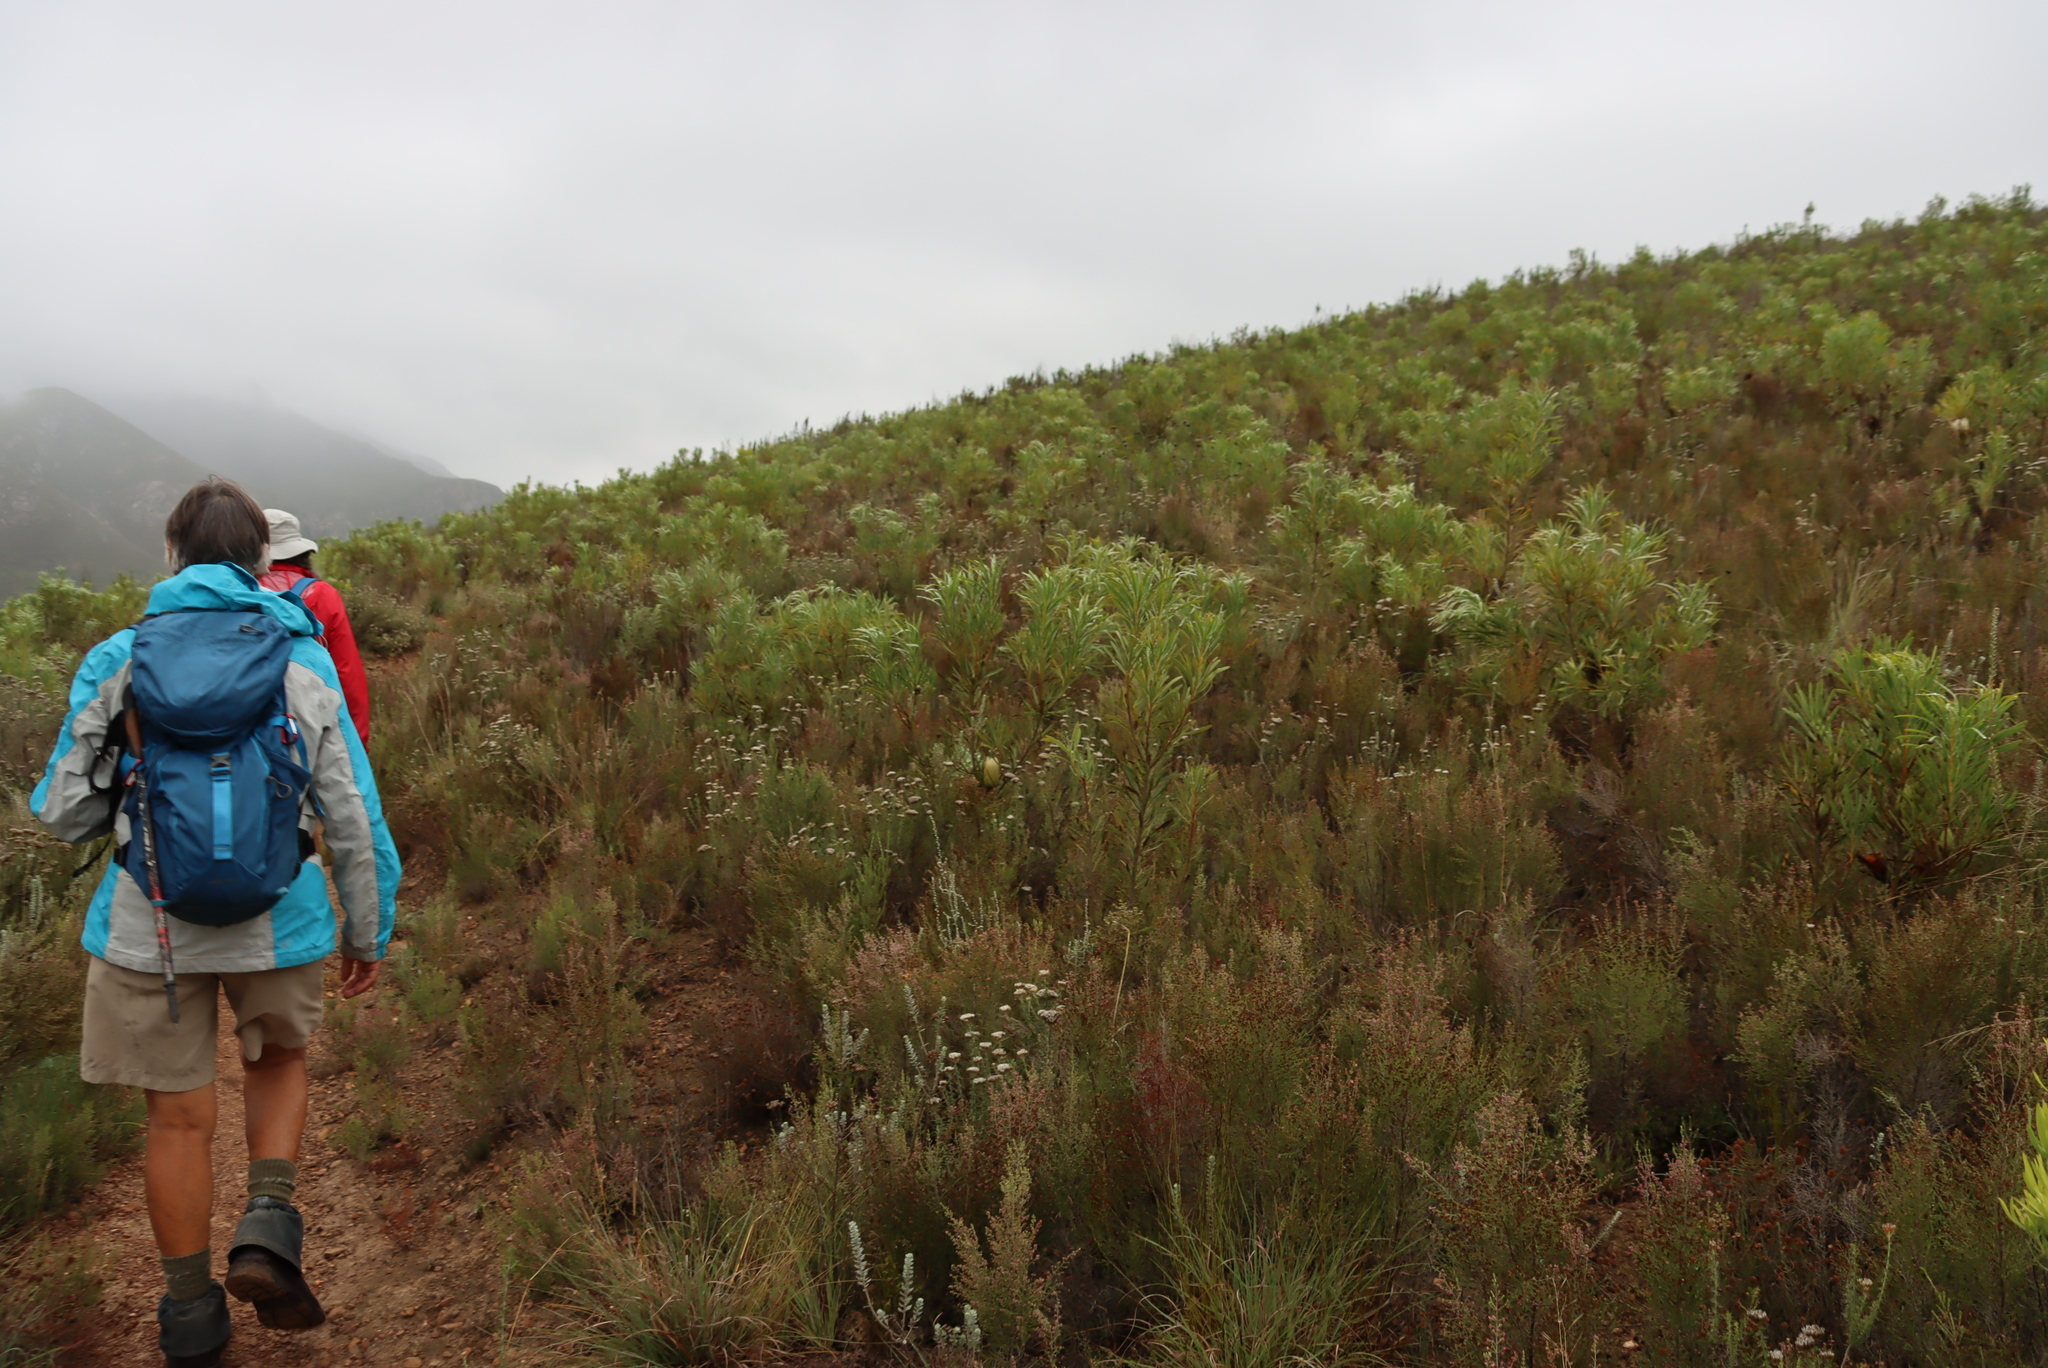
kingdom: Plantae
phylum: Tracheophyta
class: Magnoliopsida
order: Proteales
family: Proteaceae
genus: Protea
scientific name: Protea repens
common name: Sugarbush
